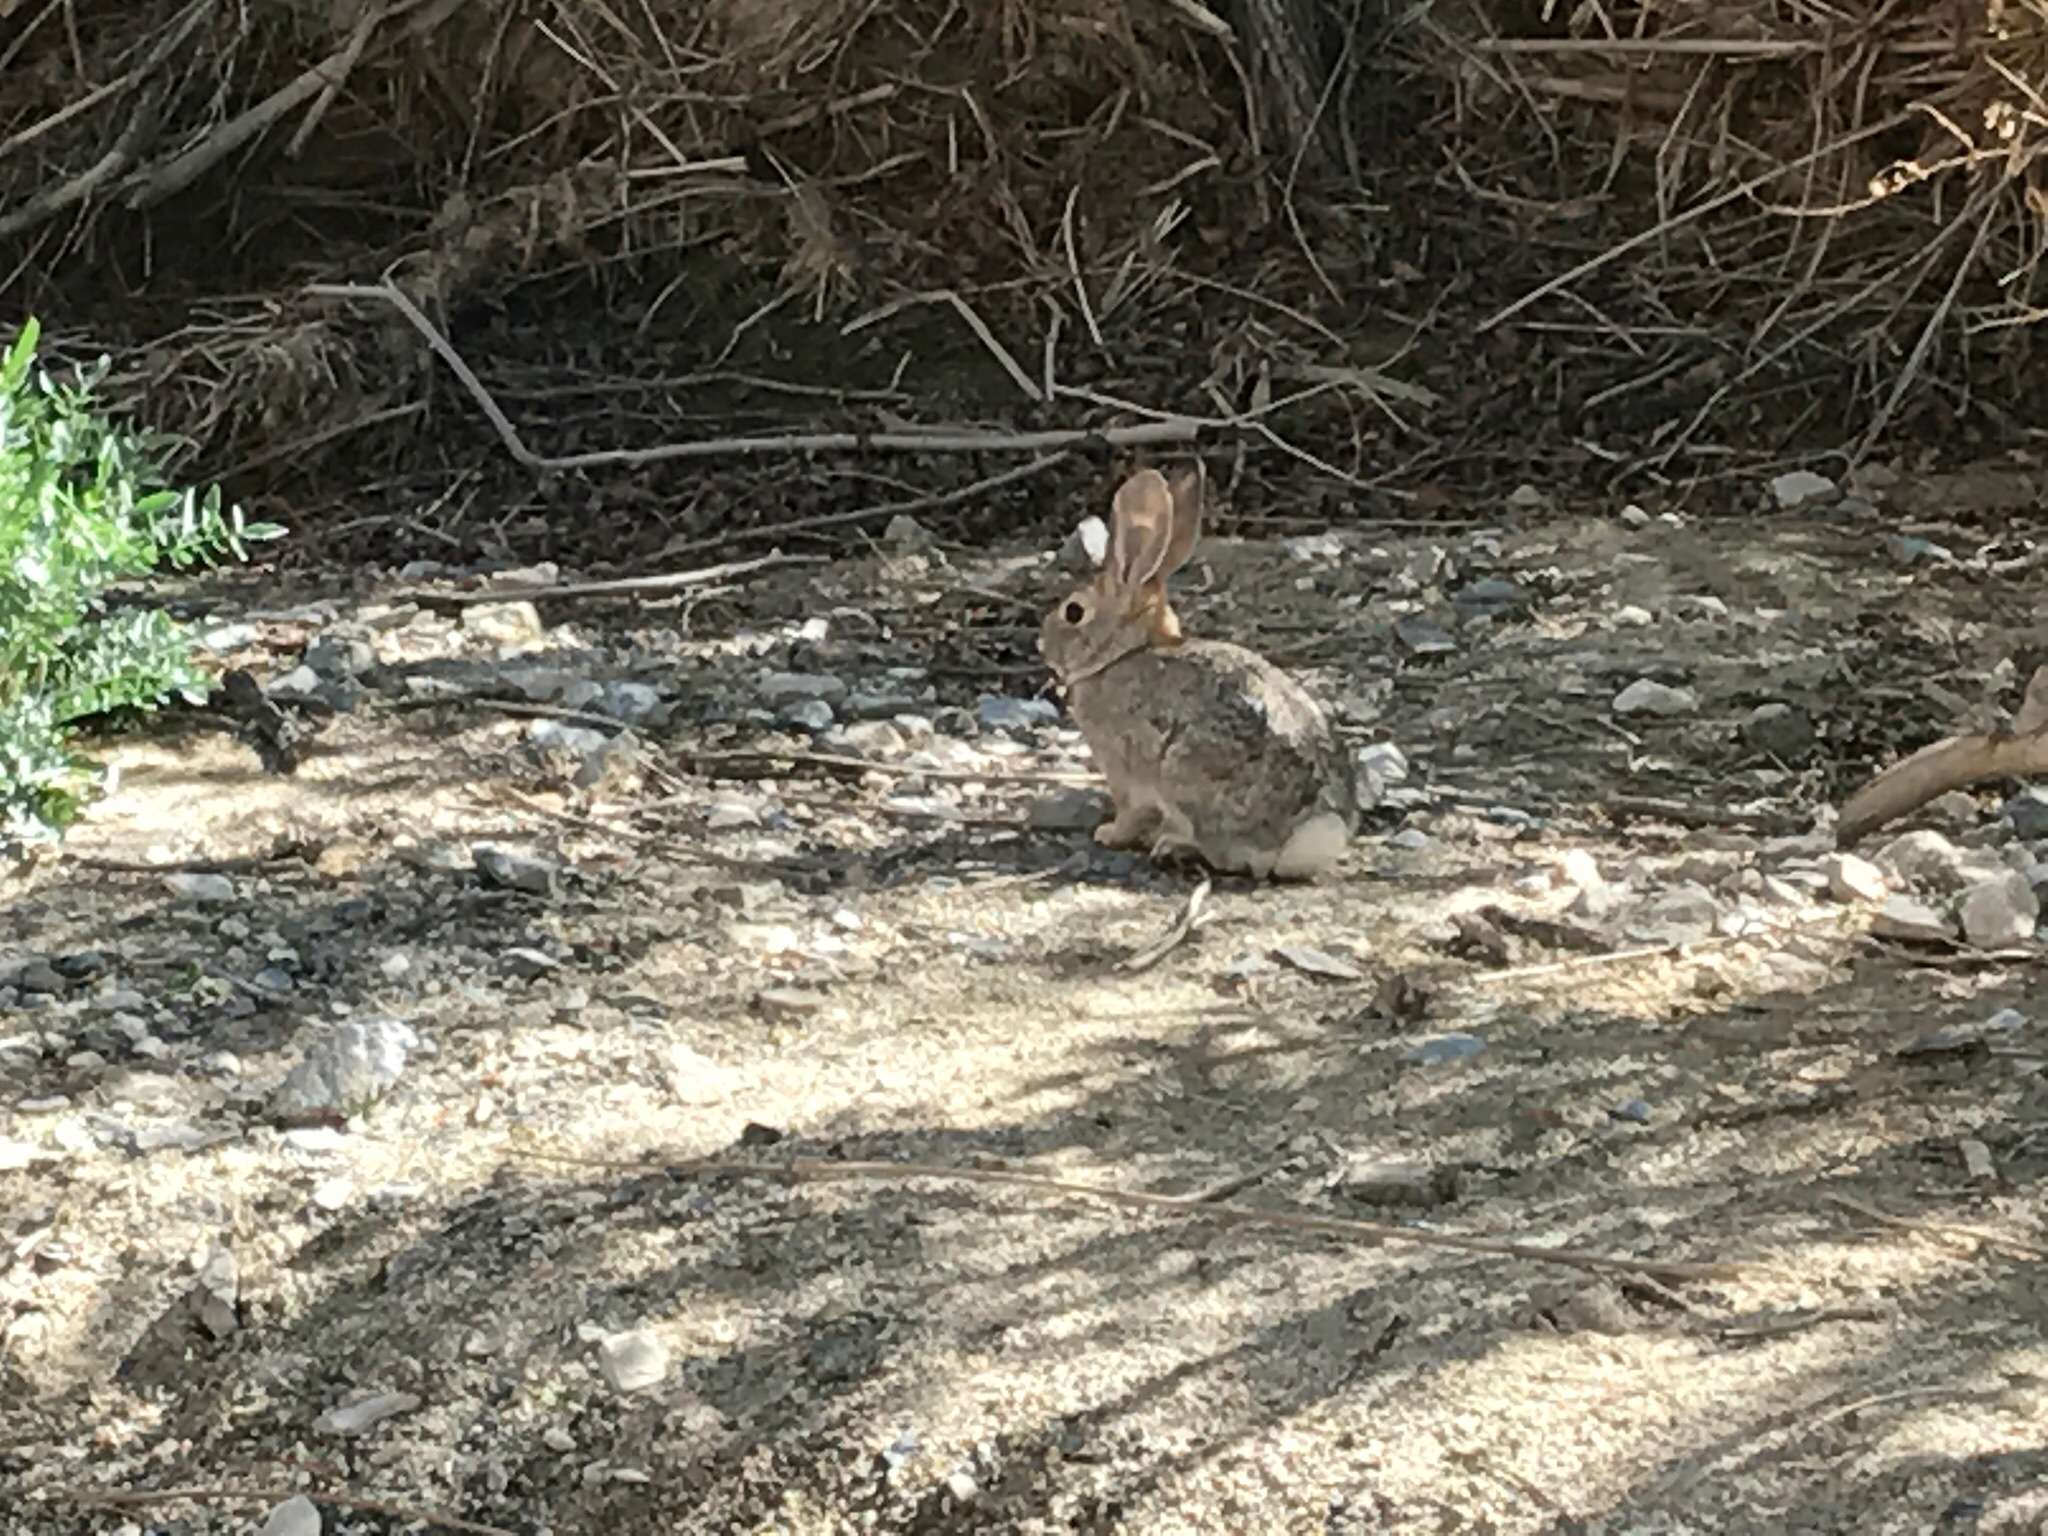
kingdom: Animalia
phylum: Chordata
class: Mammalia
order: Lagomorpha
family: Leporidae
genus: Sylvilagus
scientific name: Sylvilagus audubonii
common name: Desert cottontail
